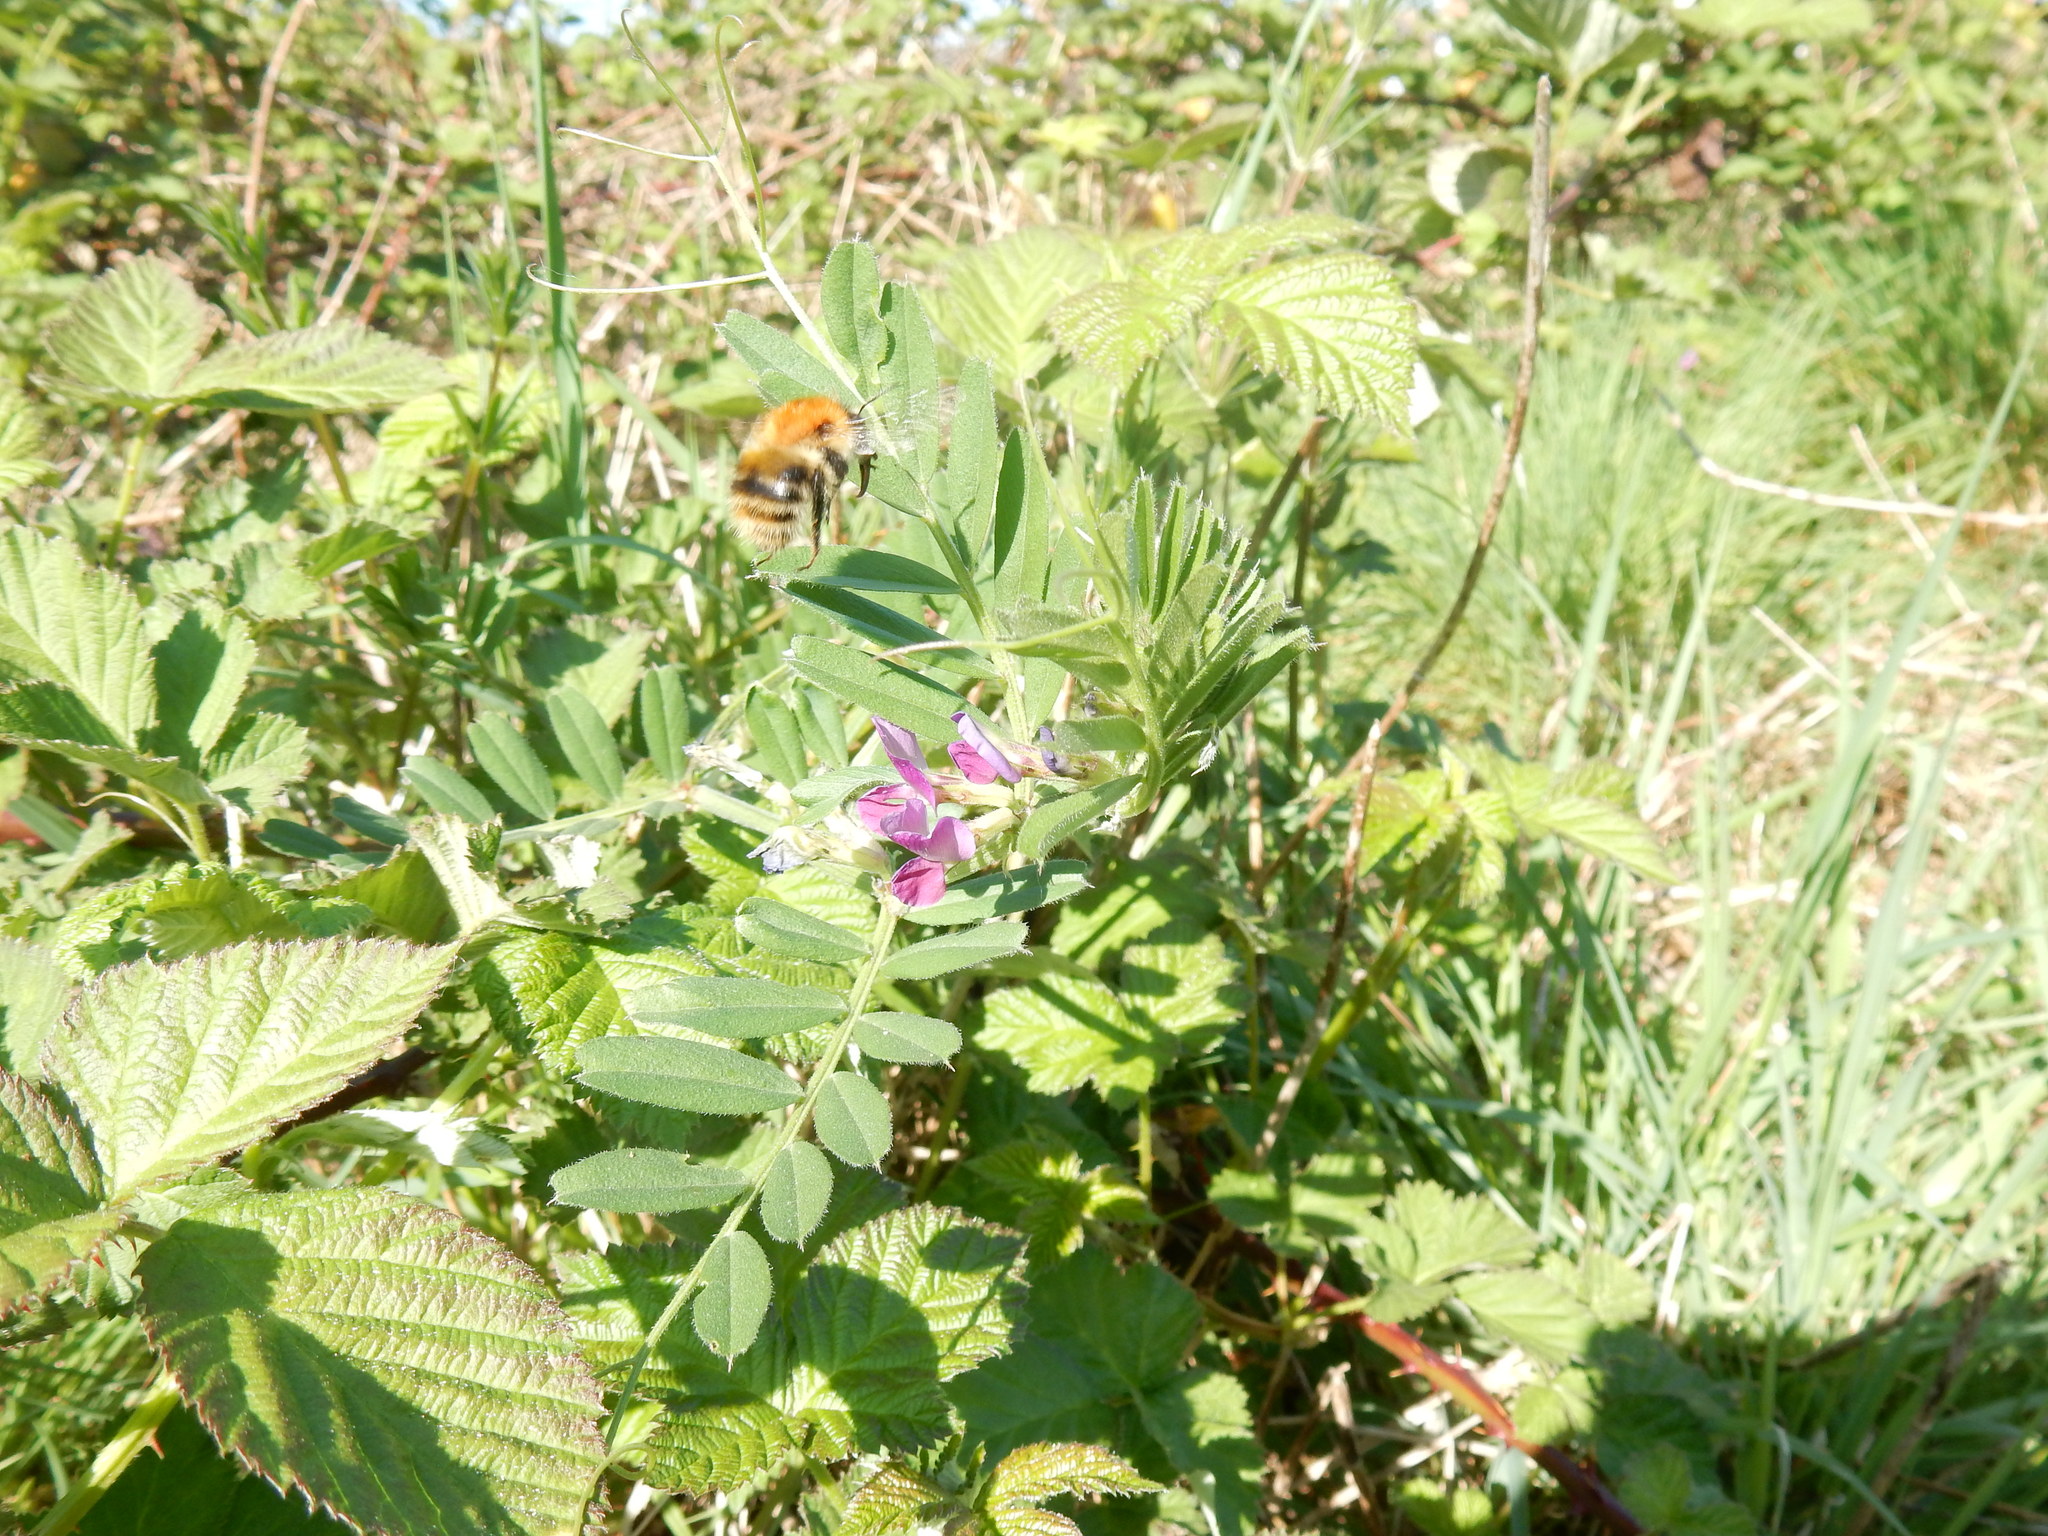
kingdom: Animalia
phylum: Arthropoda
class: Insecta
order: Hymenoptera
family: Apidae
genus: Bombus
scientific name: Bombus pascuorum
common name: Common carder bee
